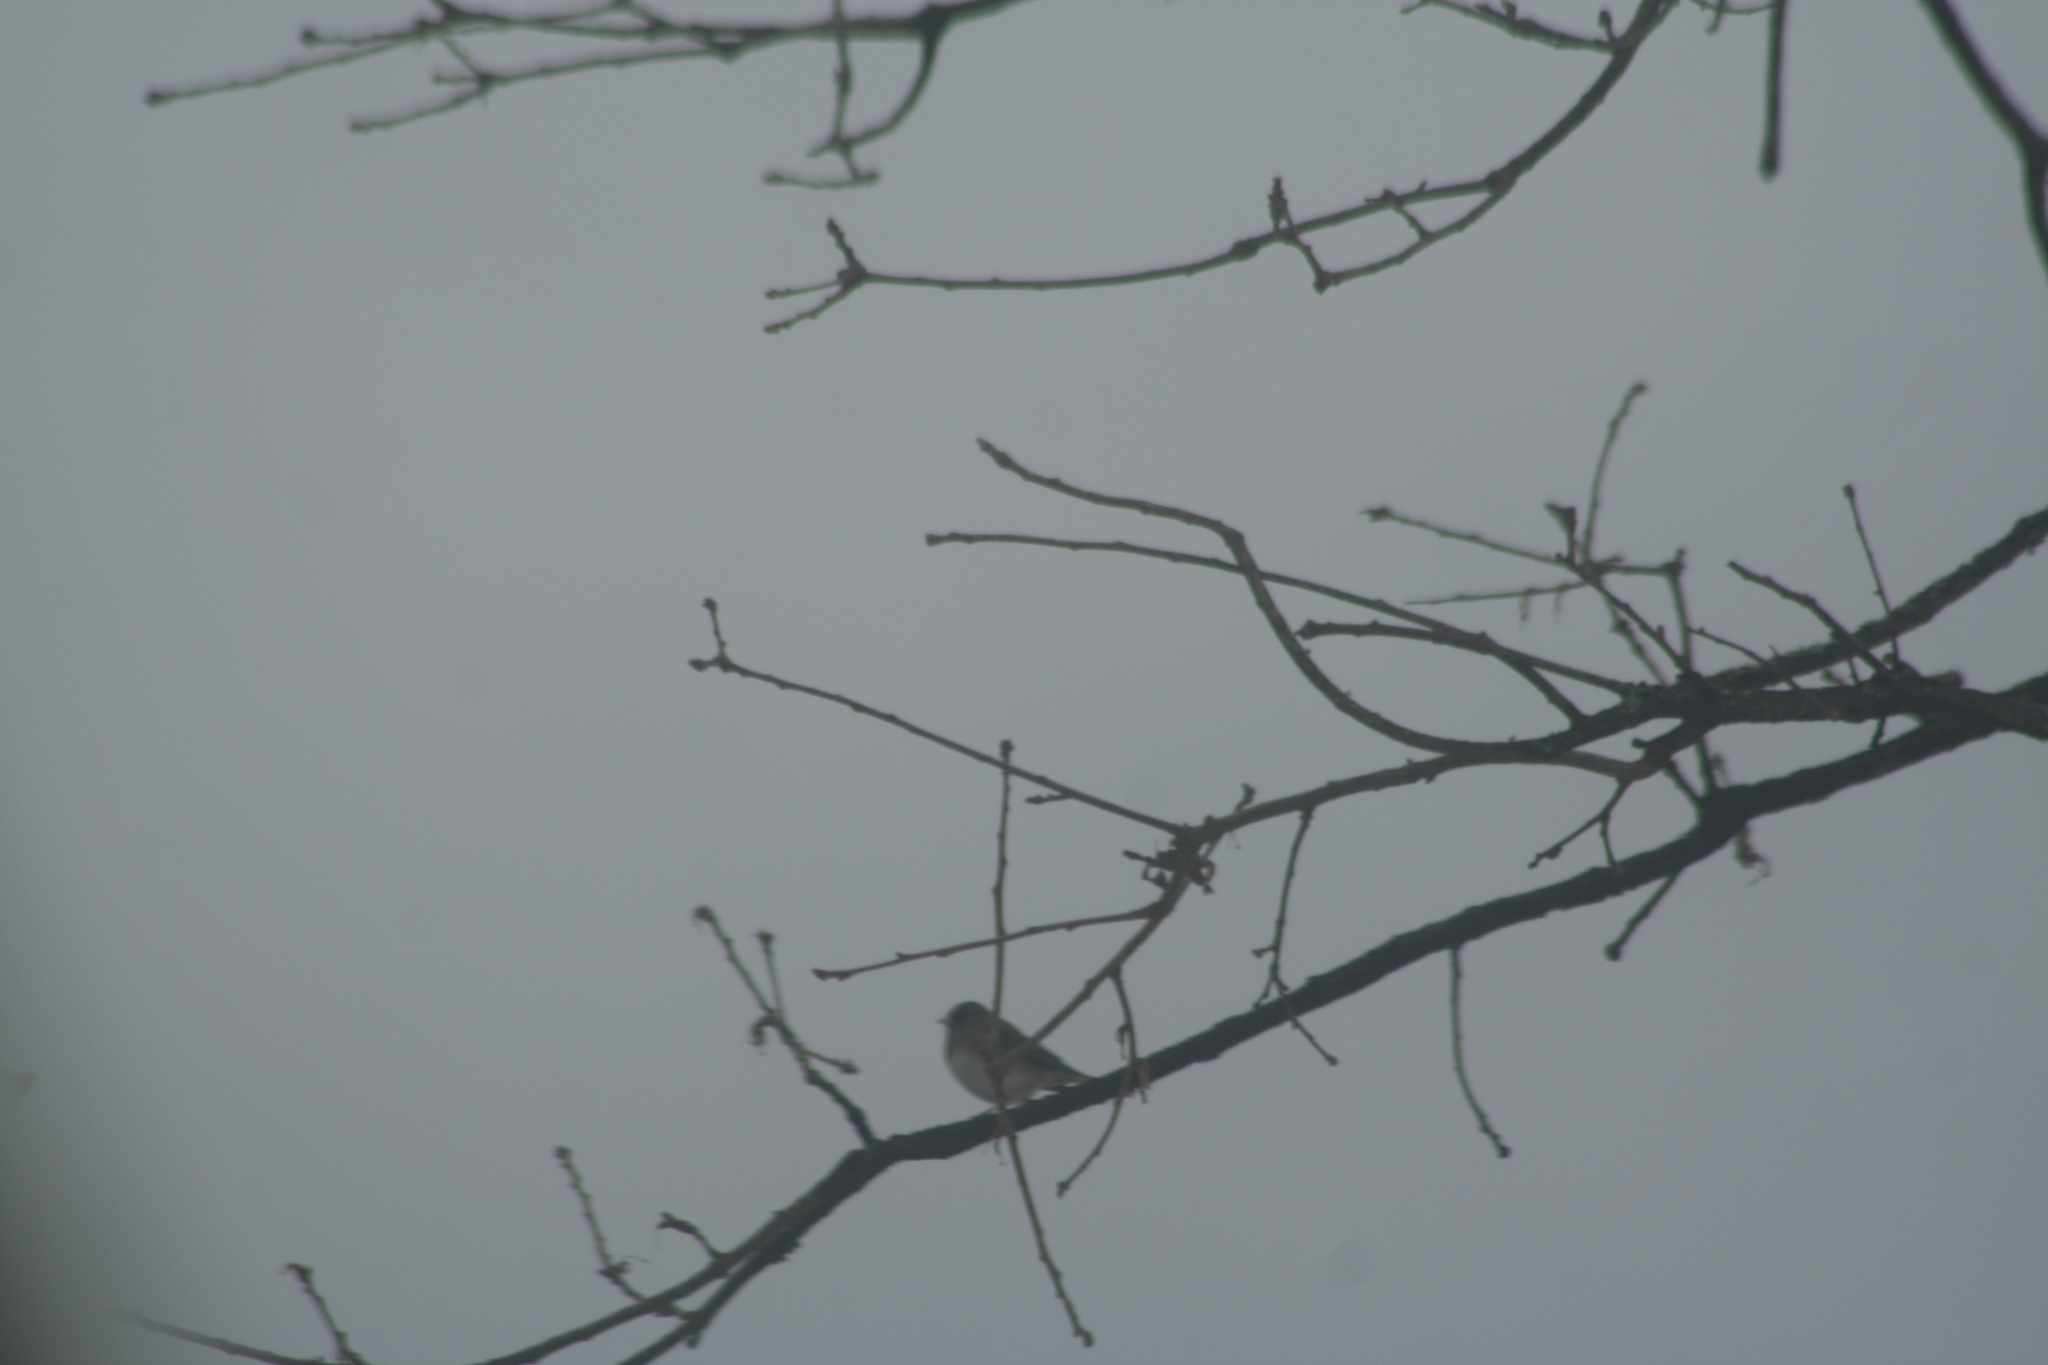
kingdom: Animalia
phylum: Chordata
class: Aves
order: Passeriformes
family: Passerellidae
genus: Junco
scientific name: Junco hyemalis
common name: Dark-eyed junco
